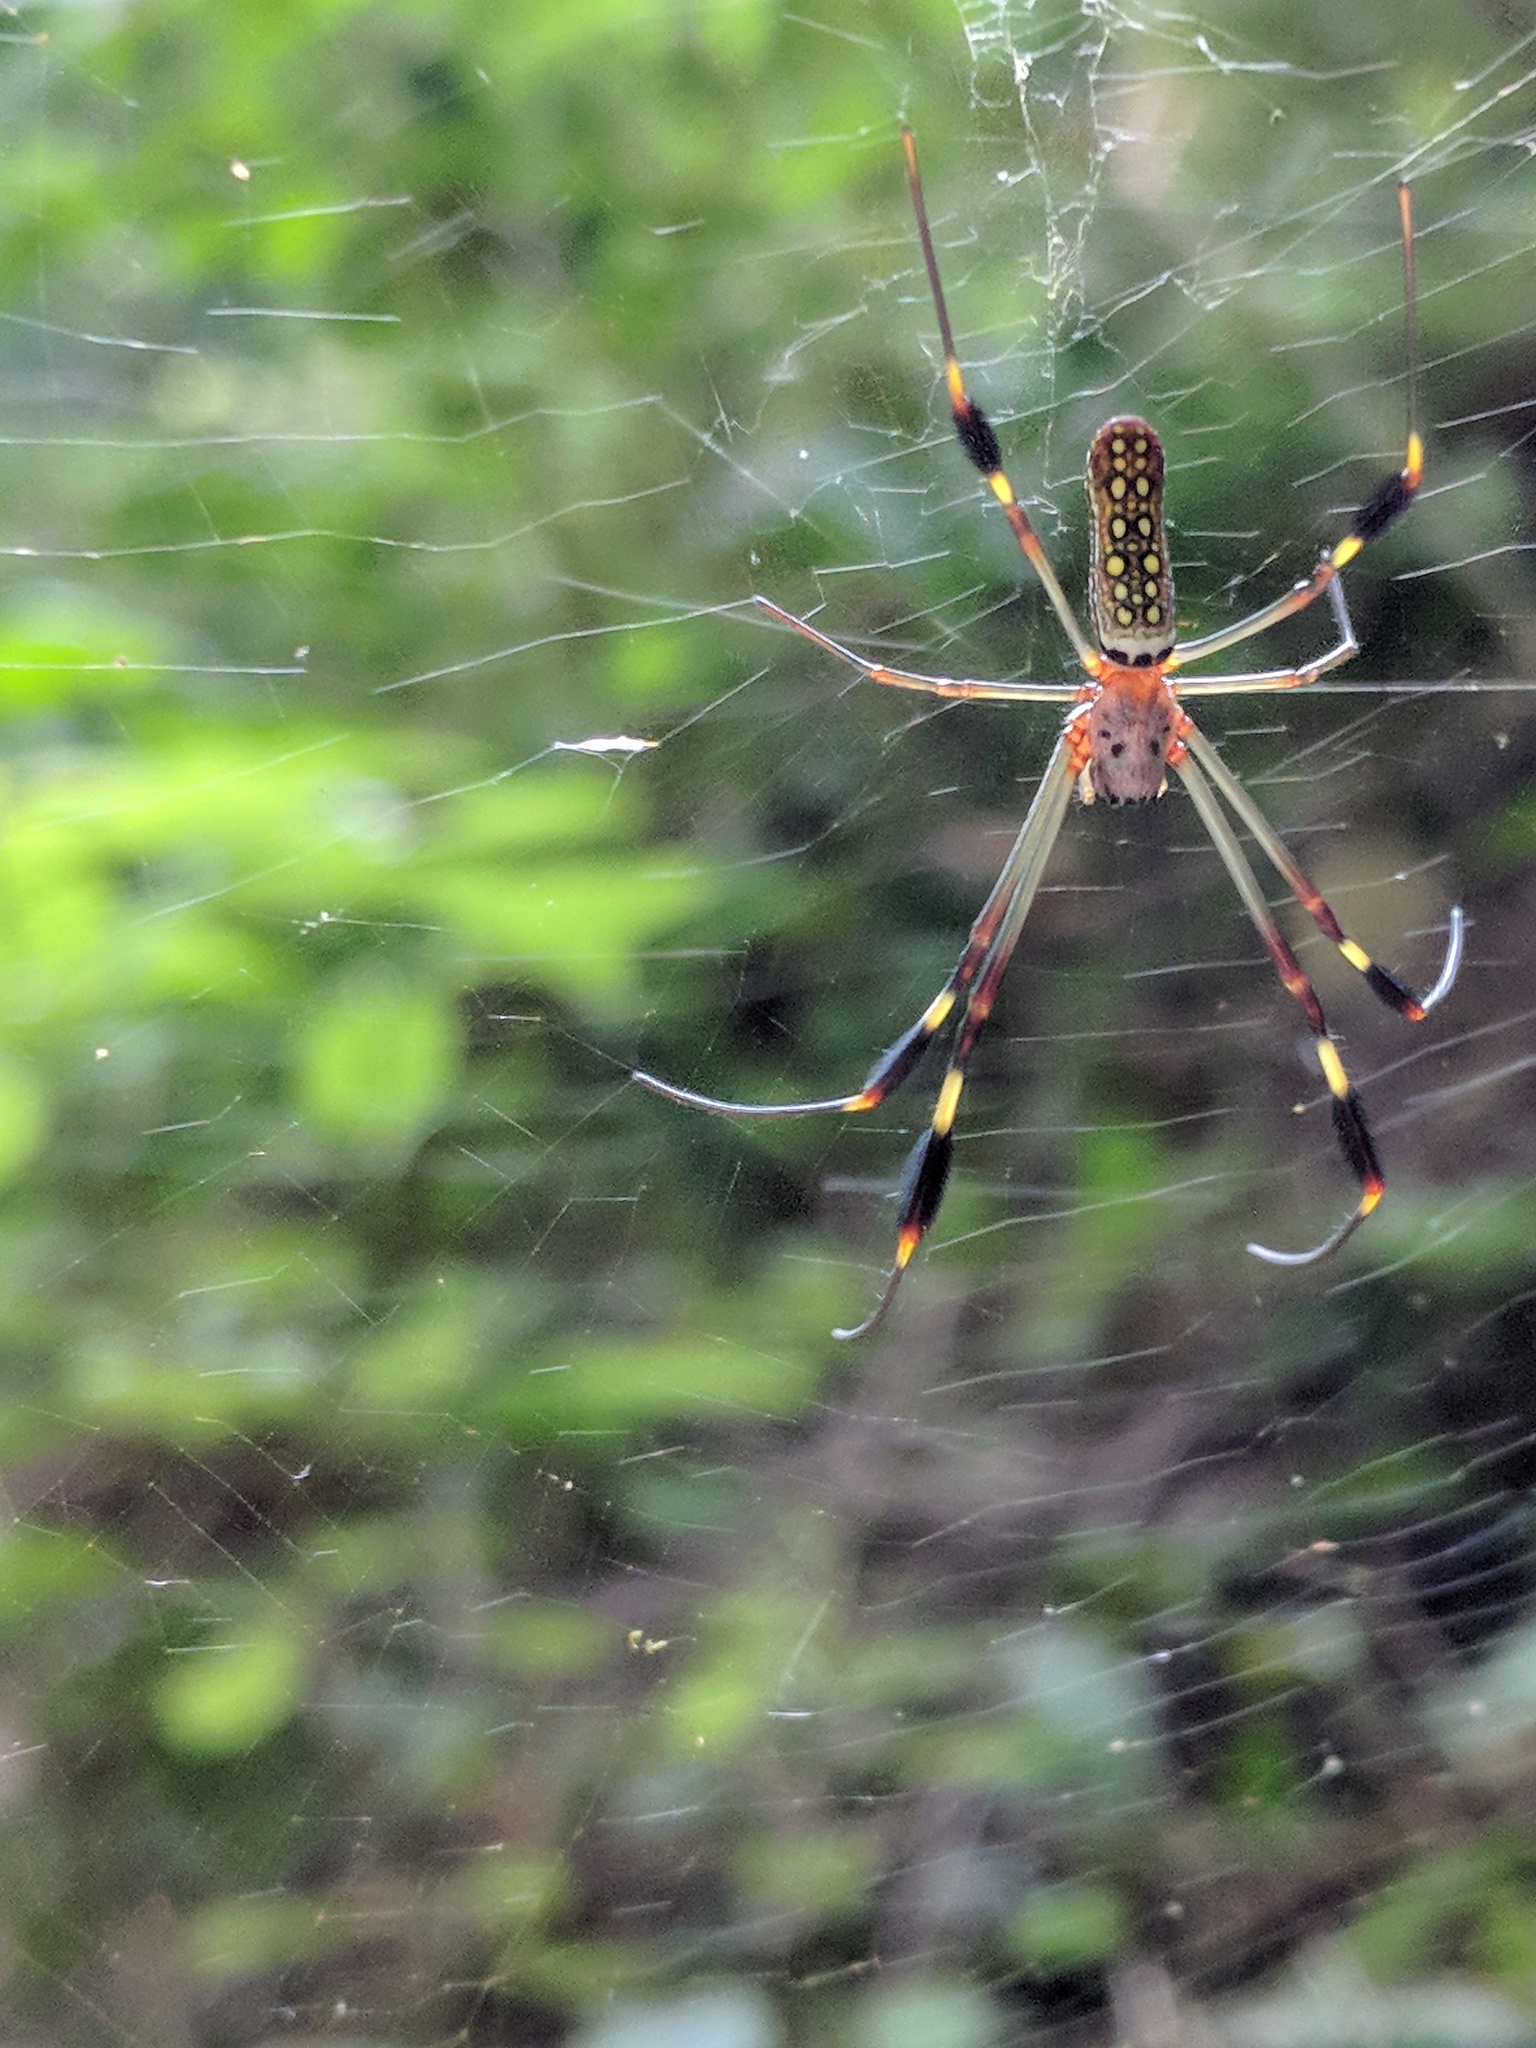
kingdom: Animalia
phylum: Arthropoda
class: Arachnida
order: Araneae
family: Araneidae
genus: Trichonephila
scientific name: Trichonephila clavipes
